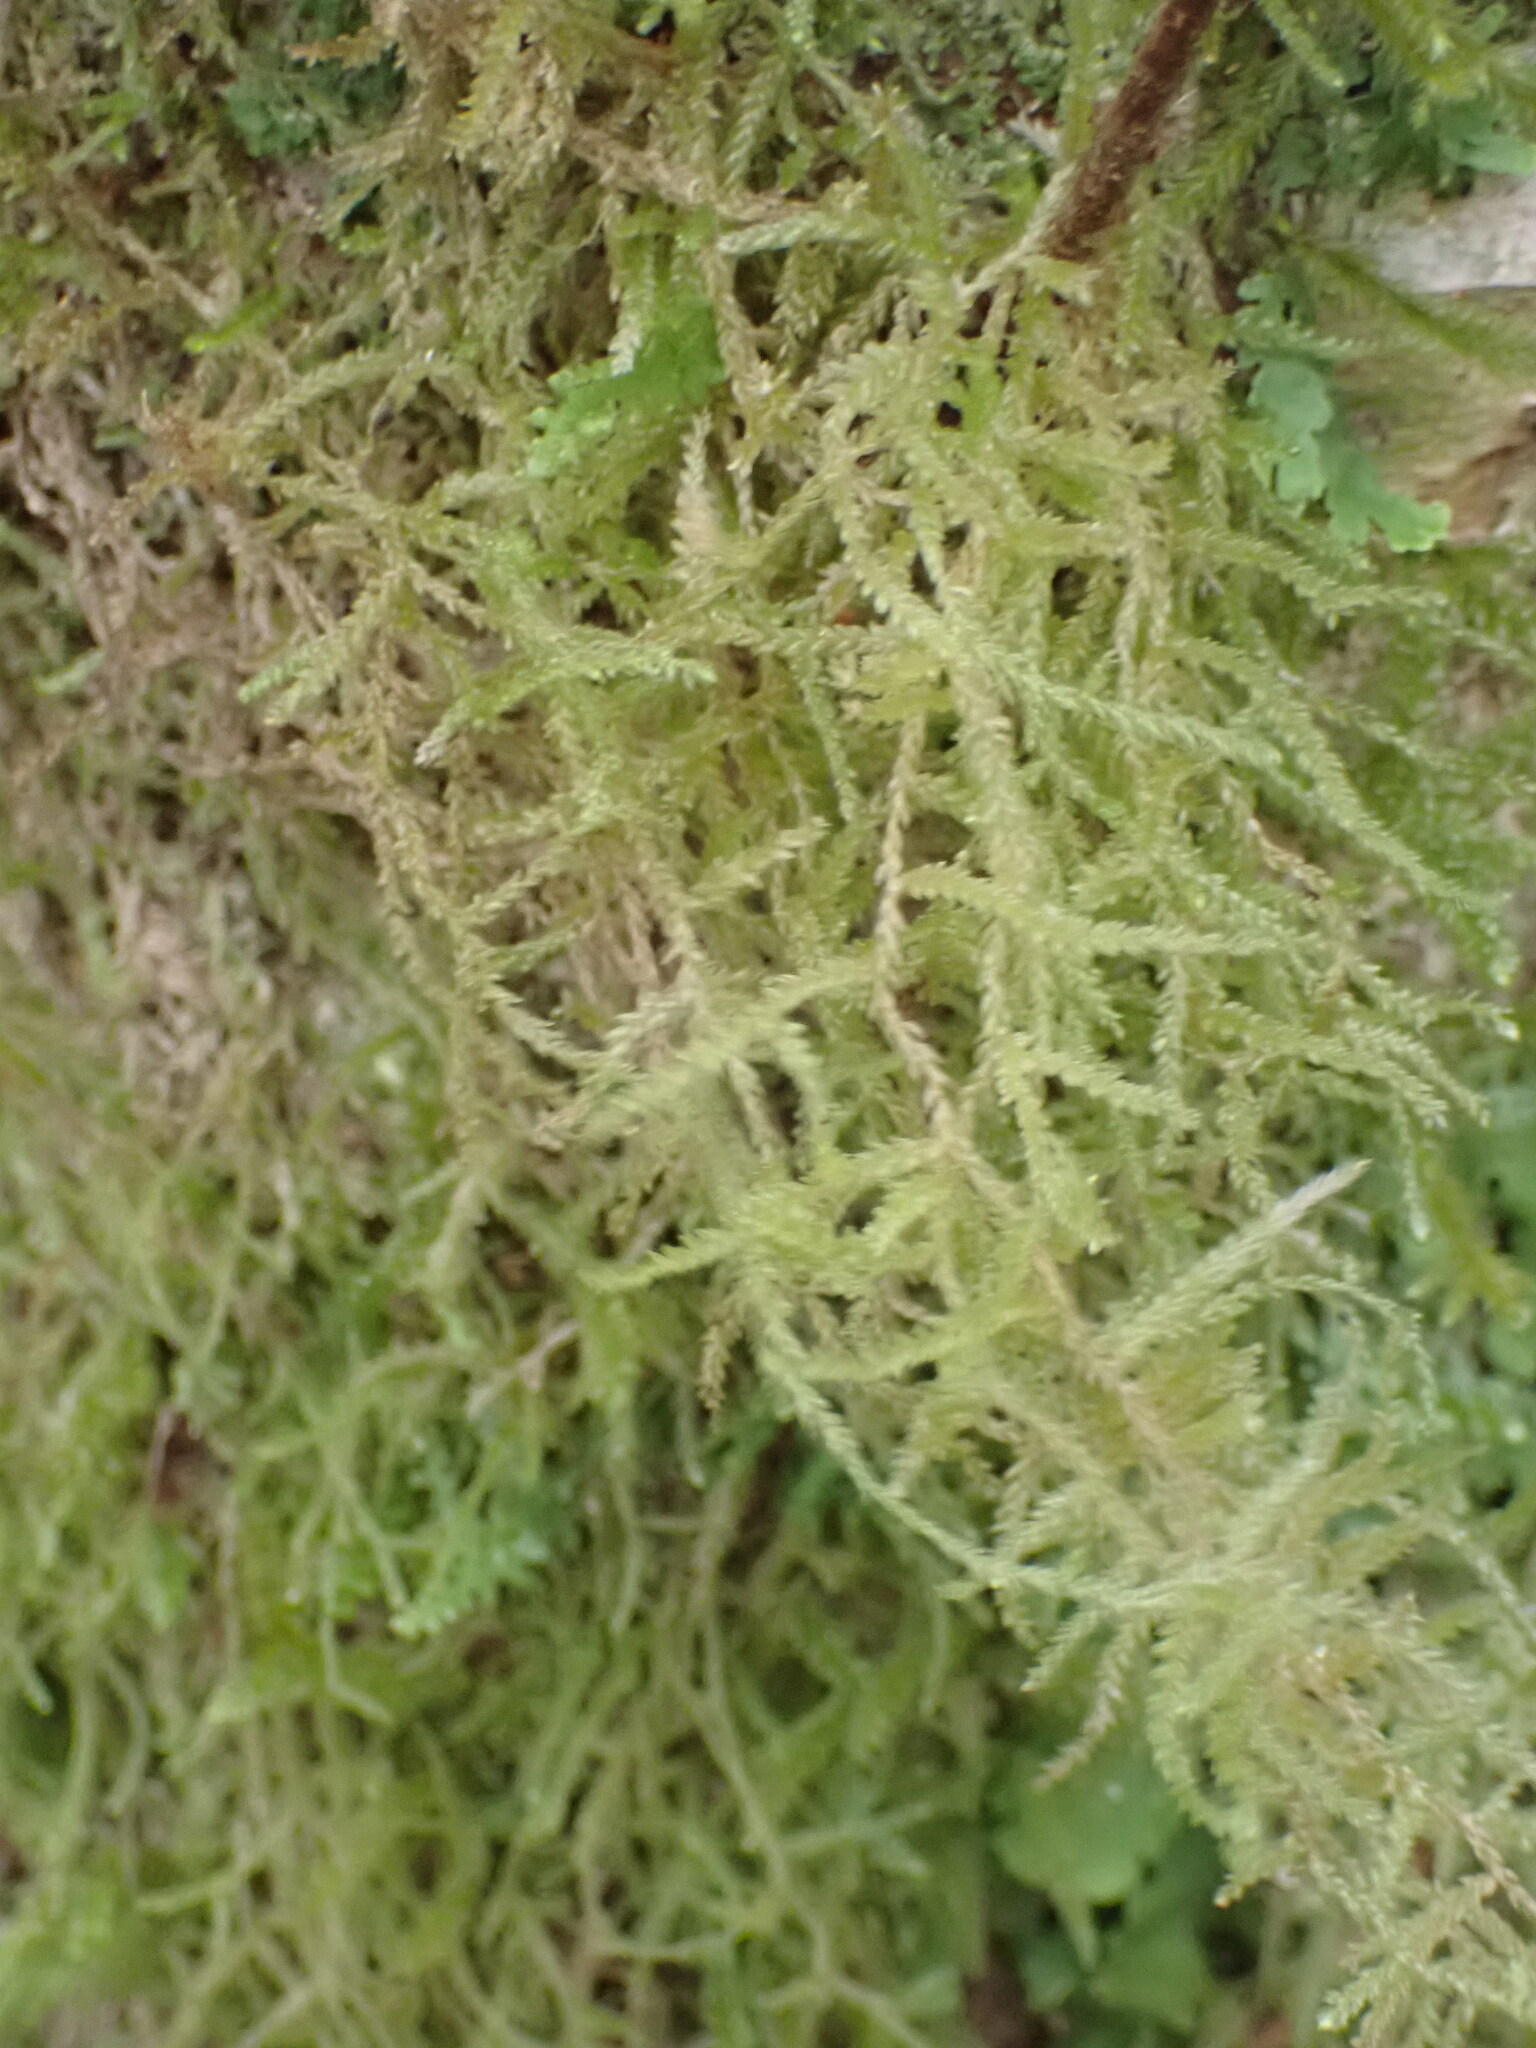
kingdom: Plantae
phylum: Bryophyta
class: Bryopsida
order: Hypnales
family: Lembophyllaceae
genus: Weymouthia
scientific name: Weymouthia mollis
